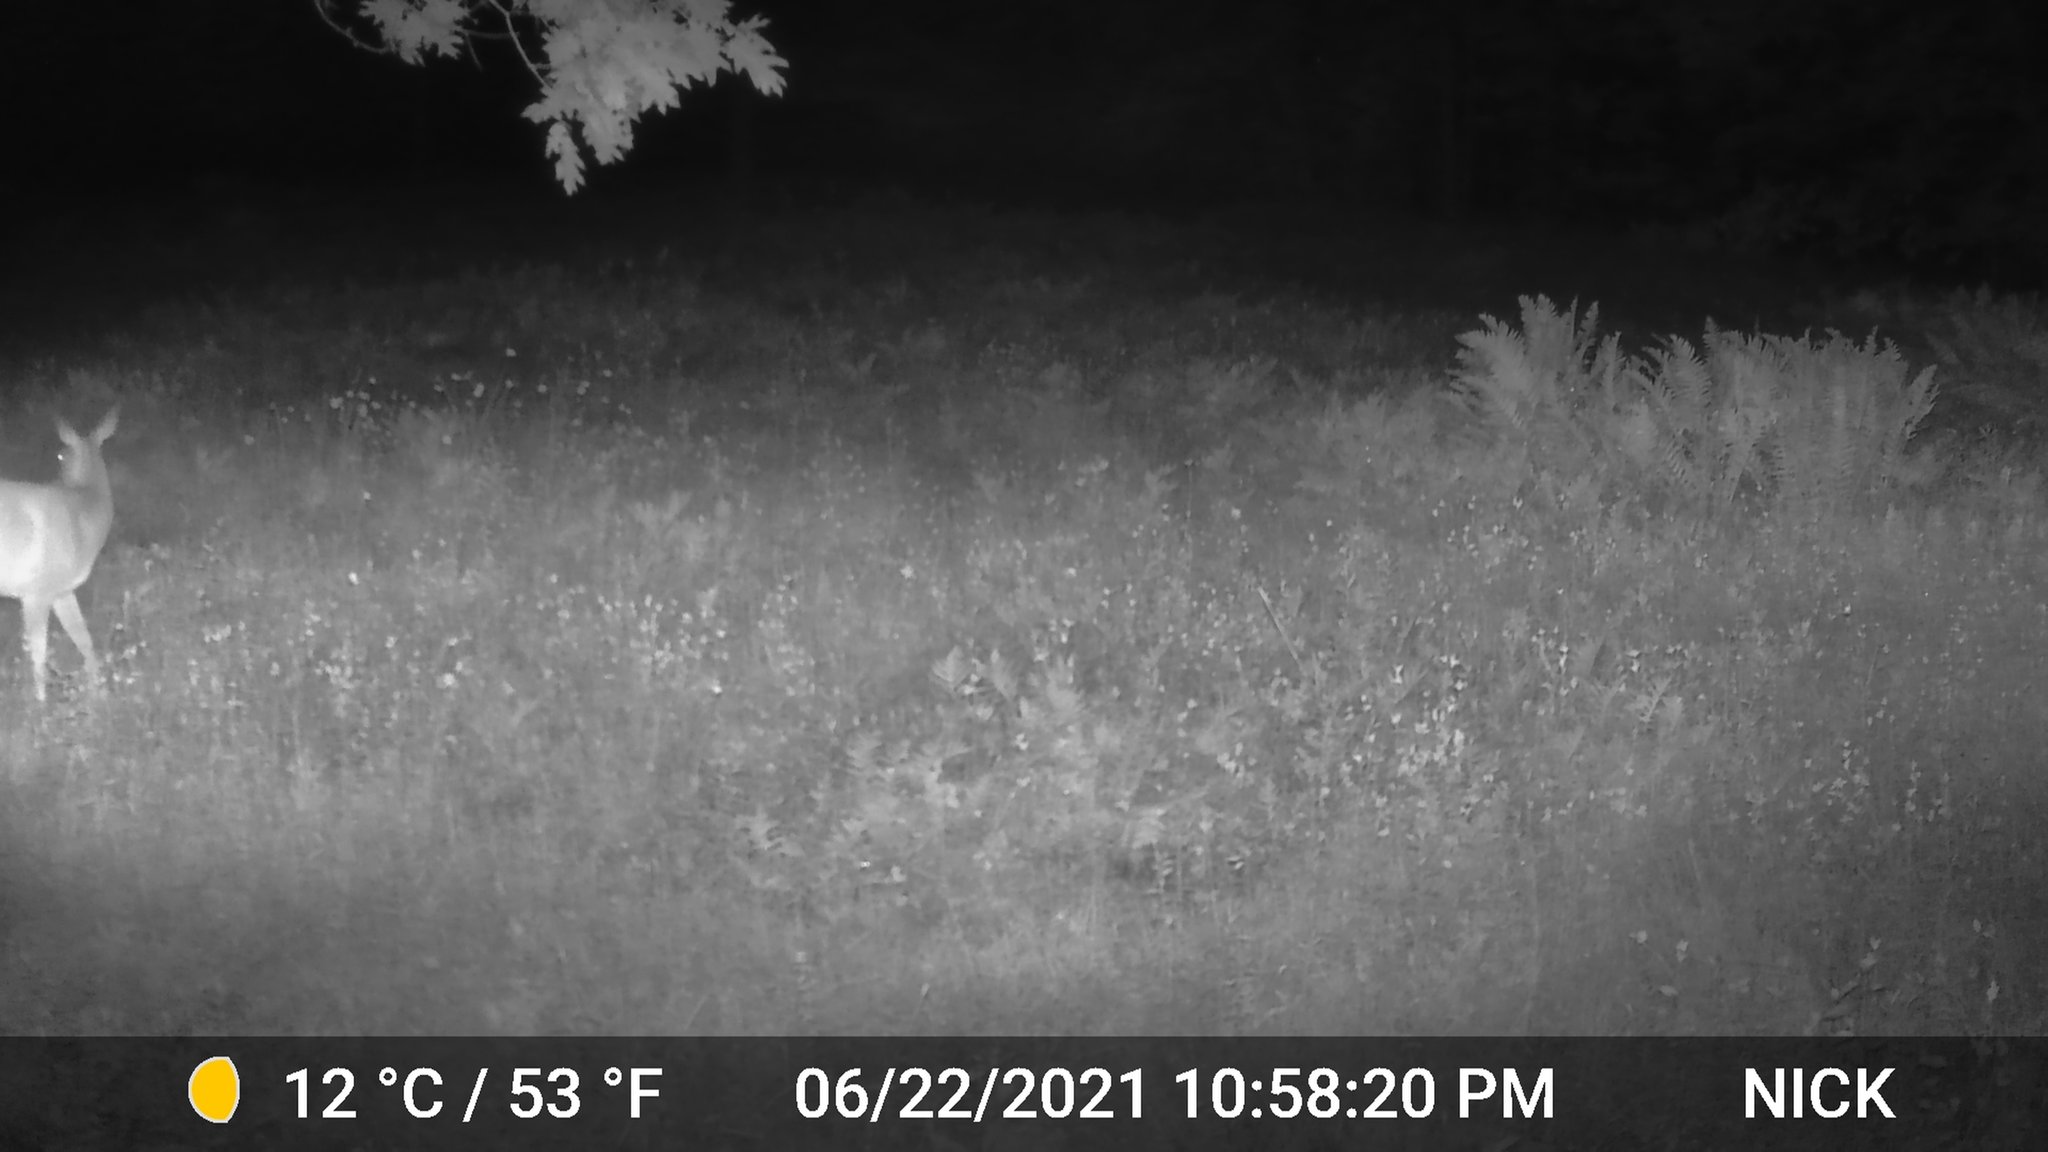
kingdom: Animalia
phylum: Chordata
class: Mammalia
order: Artiodactyla
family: Cervidae
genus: Odocoileus
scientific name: Odocoileus virginianus
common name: White-tailed deer
